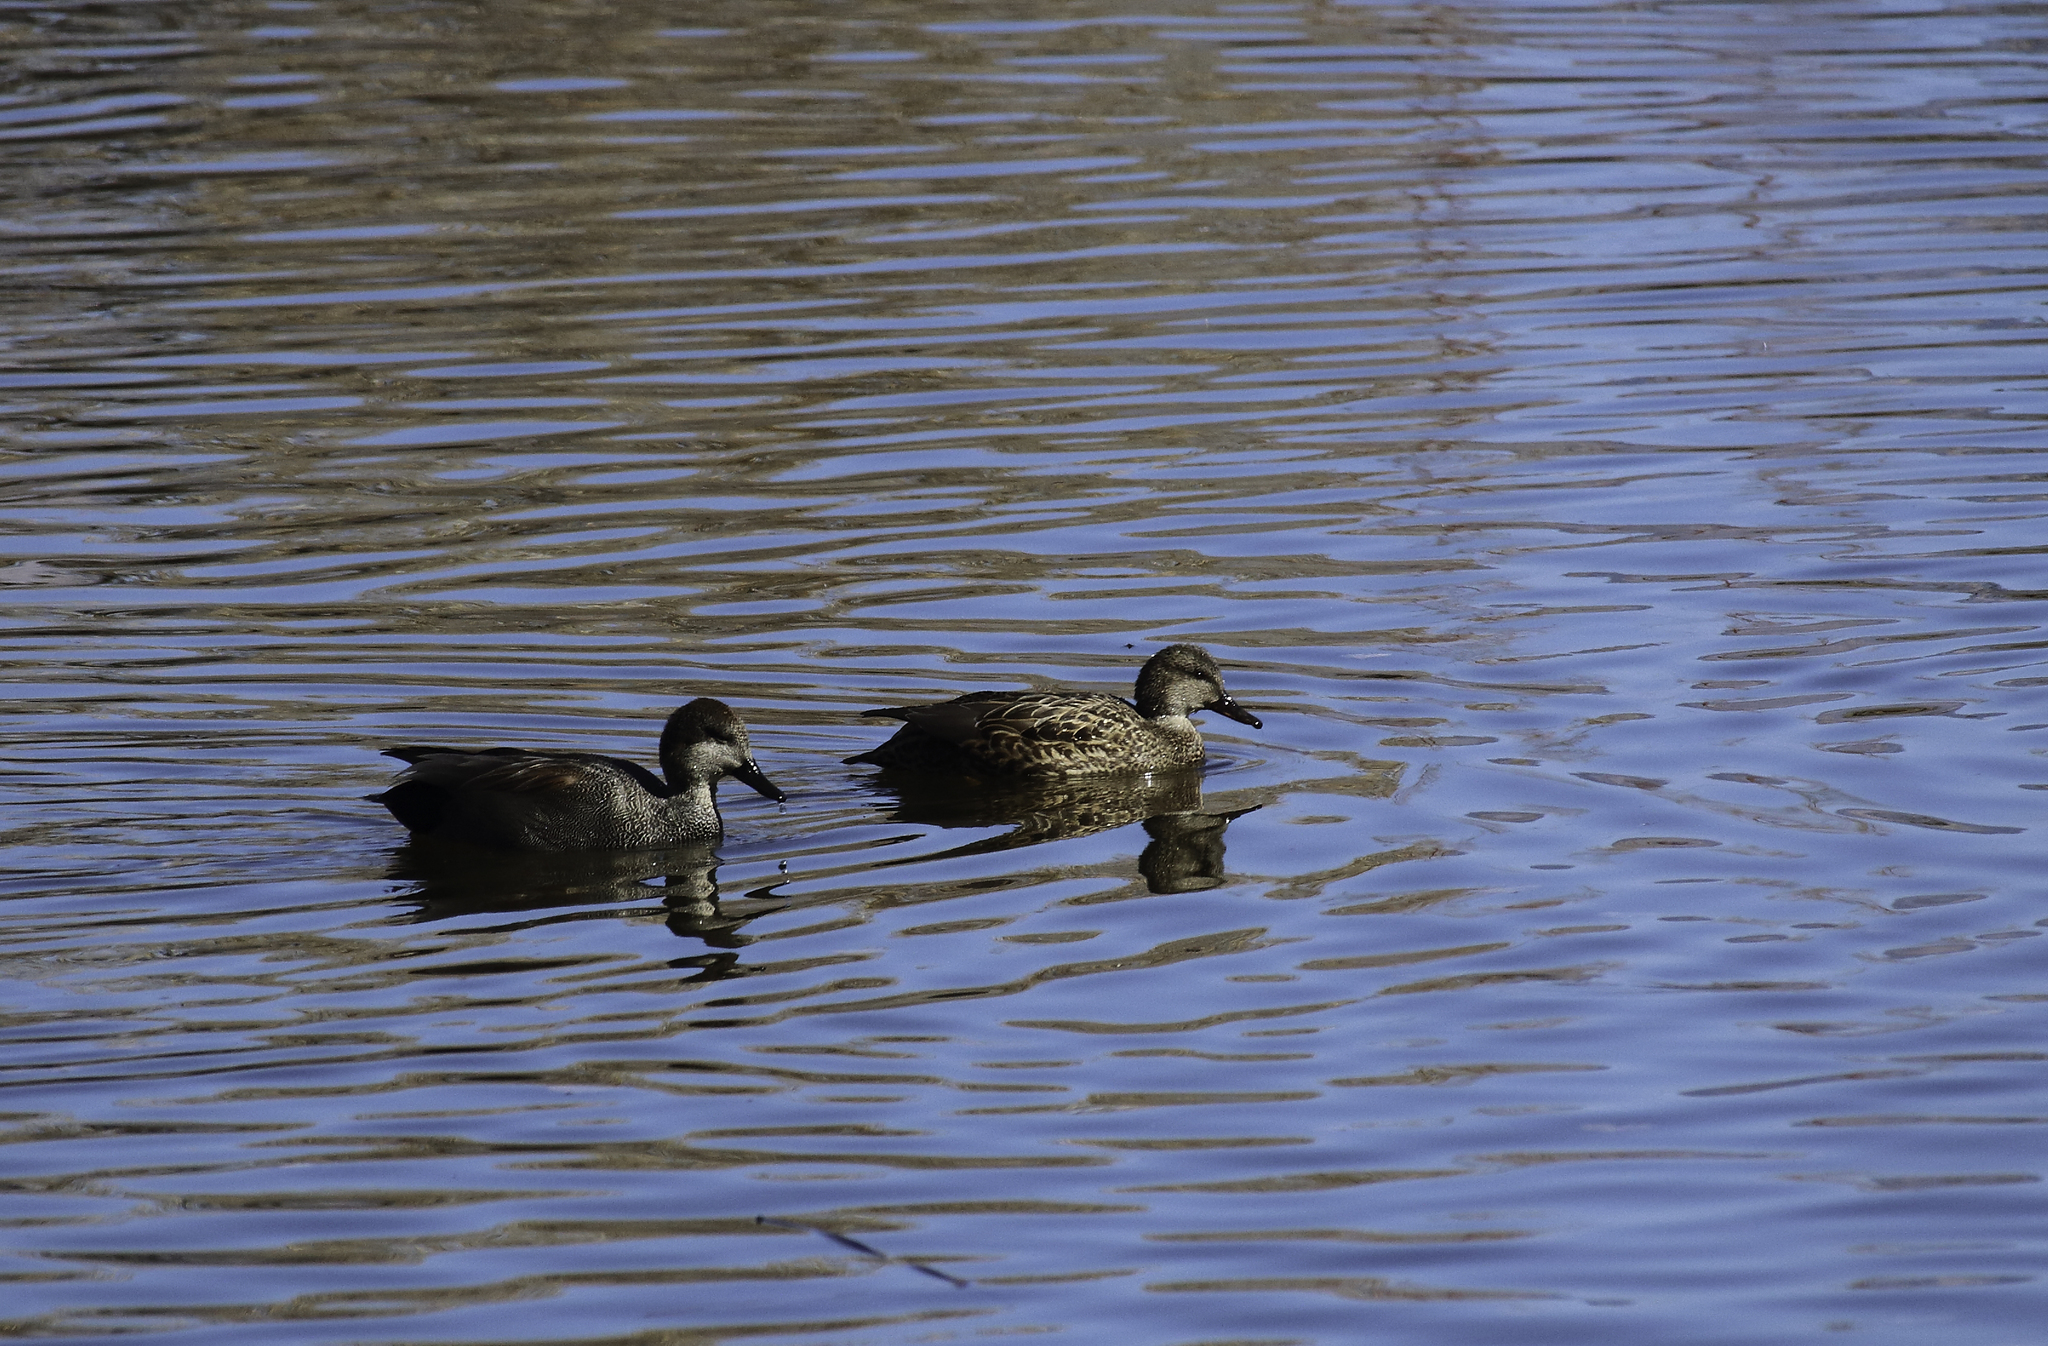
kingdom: Animalia
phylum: Chordata
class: Aves
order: Anseriformes
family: Anatidae
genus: Mareca
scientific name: Mareca strepera
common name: Gadwall
